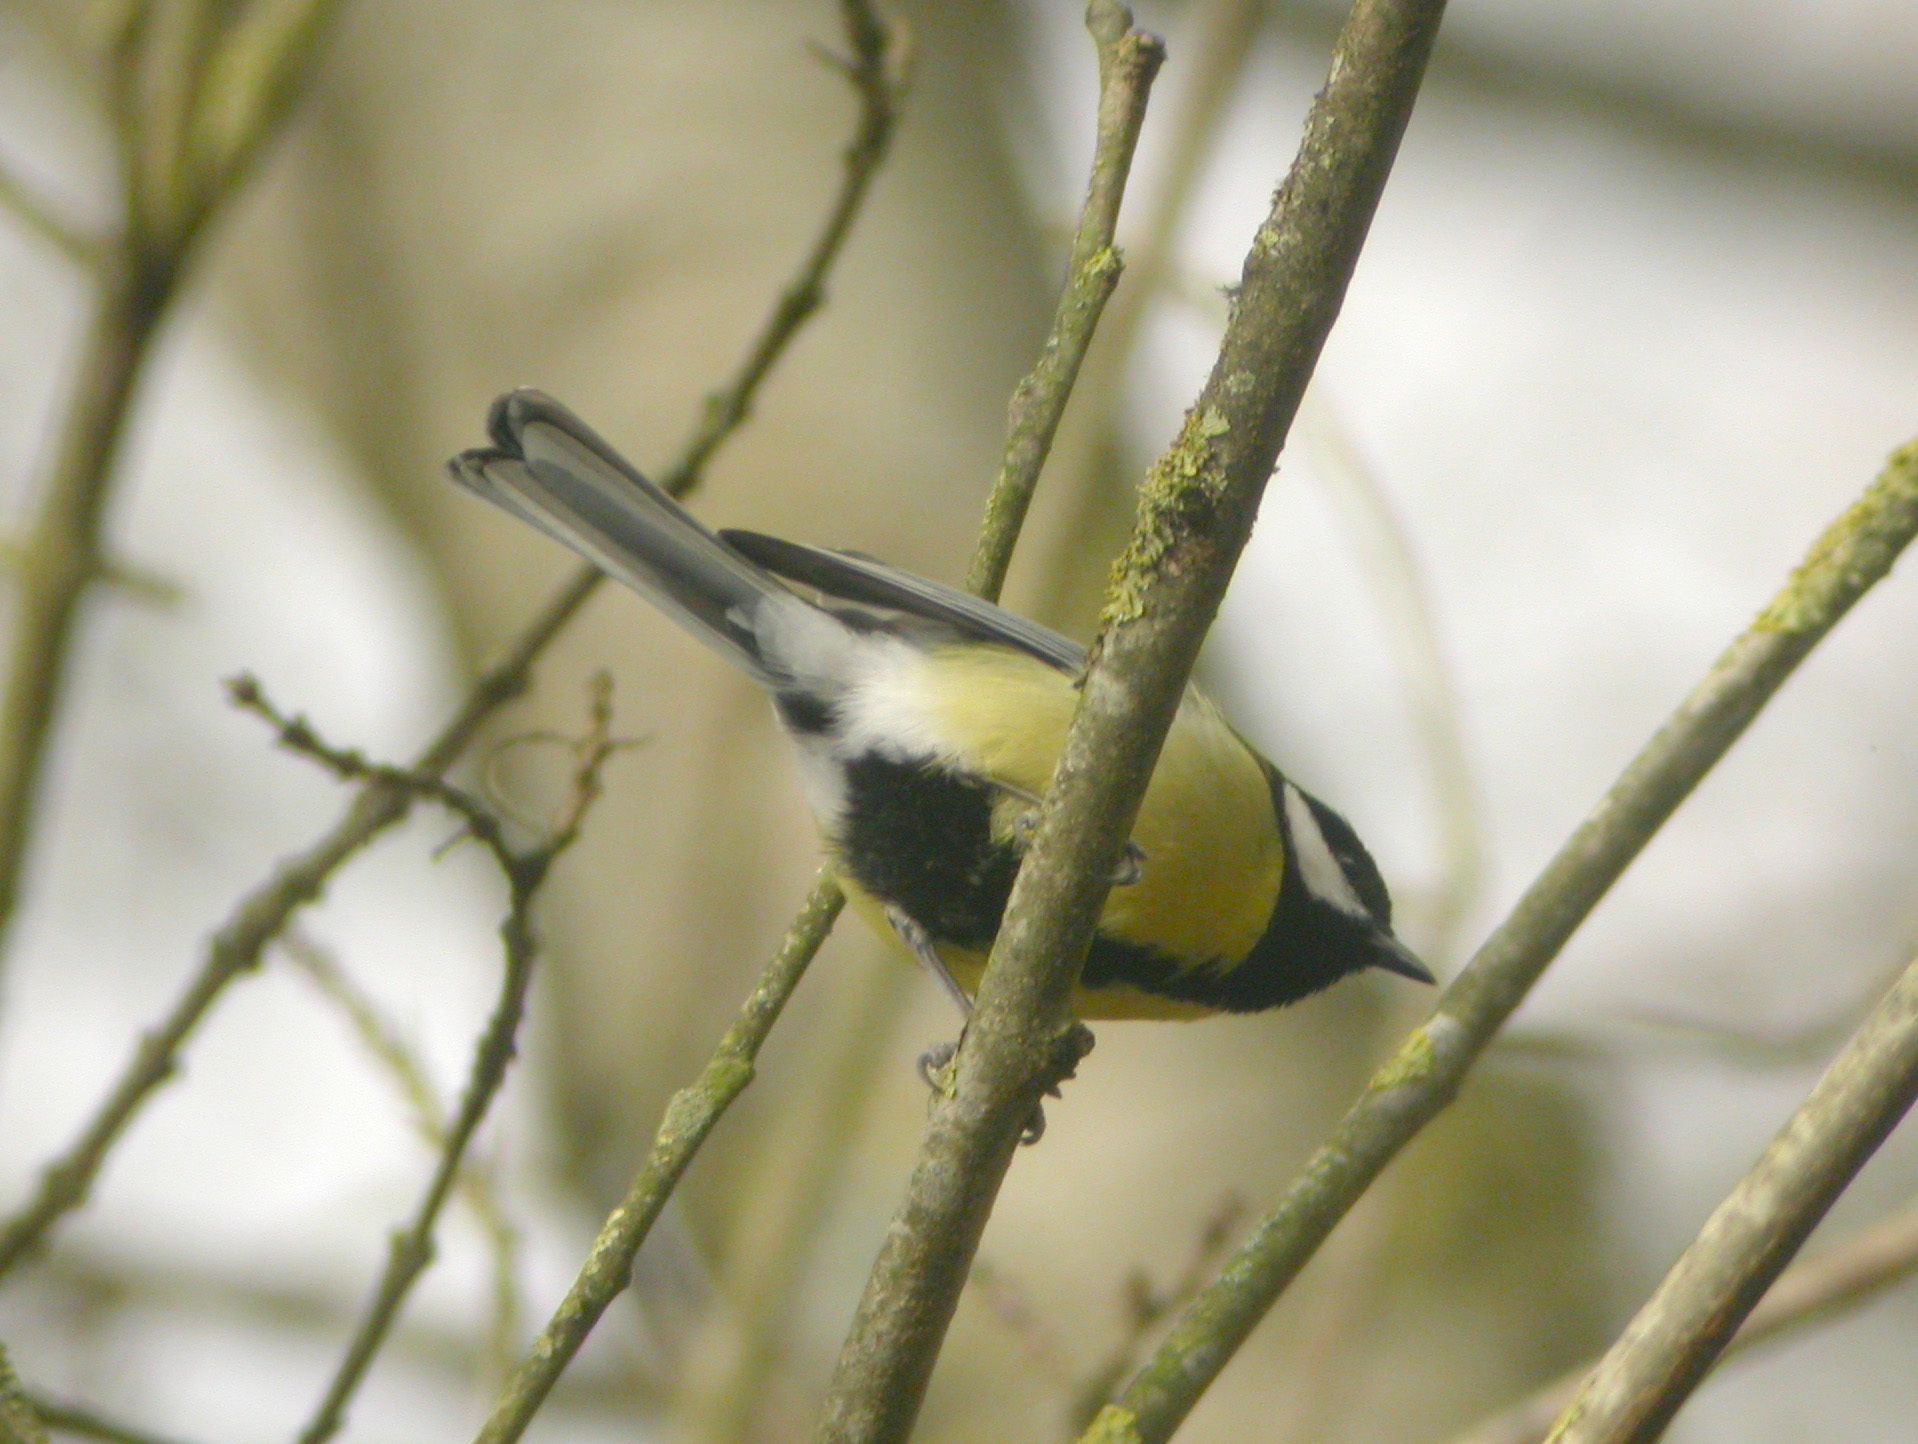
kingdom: Animalia
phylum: Chordata
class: Aves
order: Passeriformes
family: Paridae
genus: Parus
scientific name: Parus major
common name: Great tit
